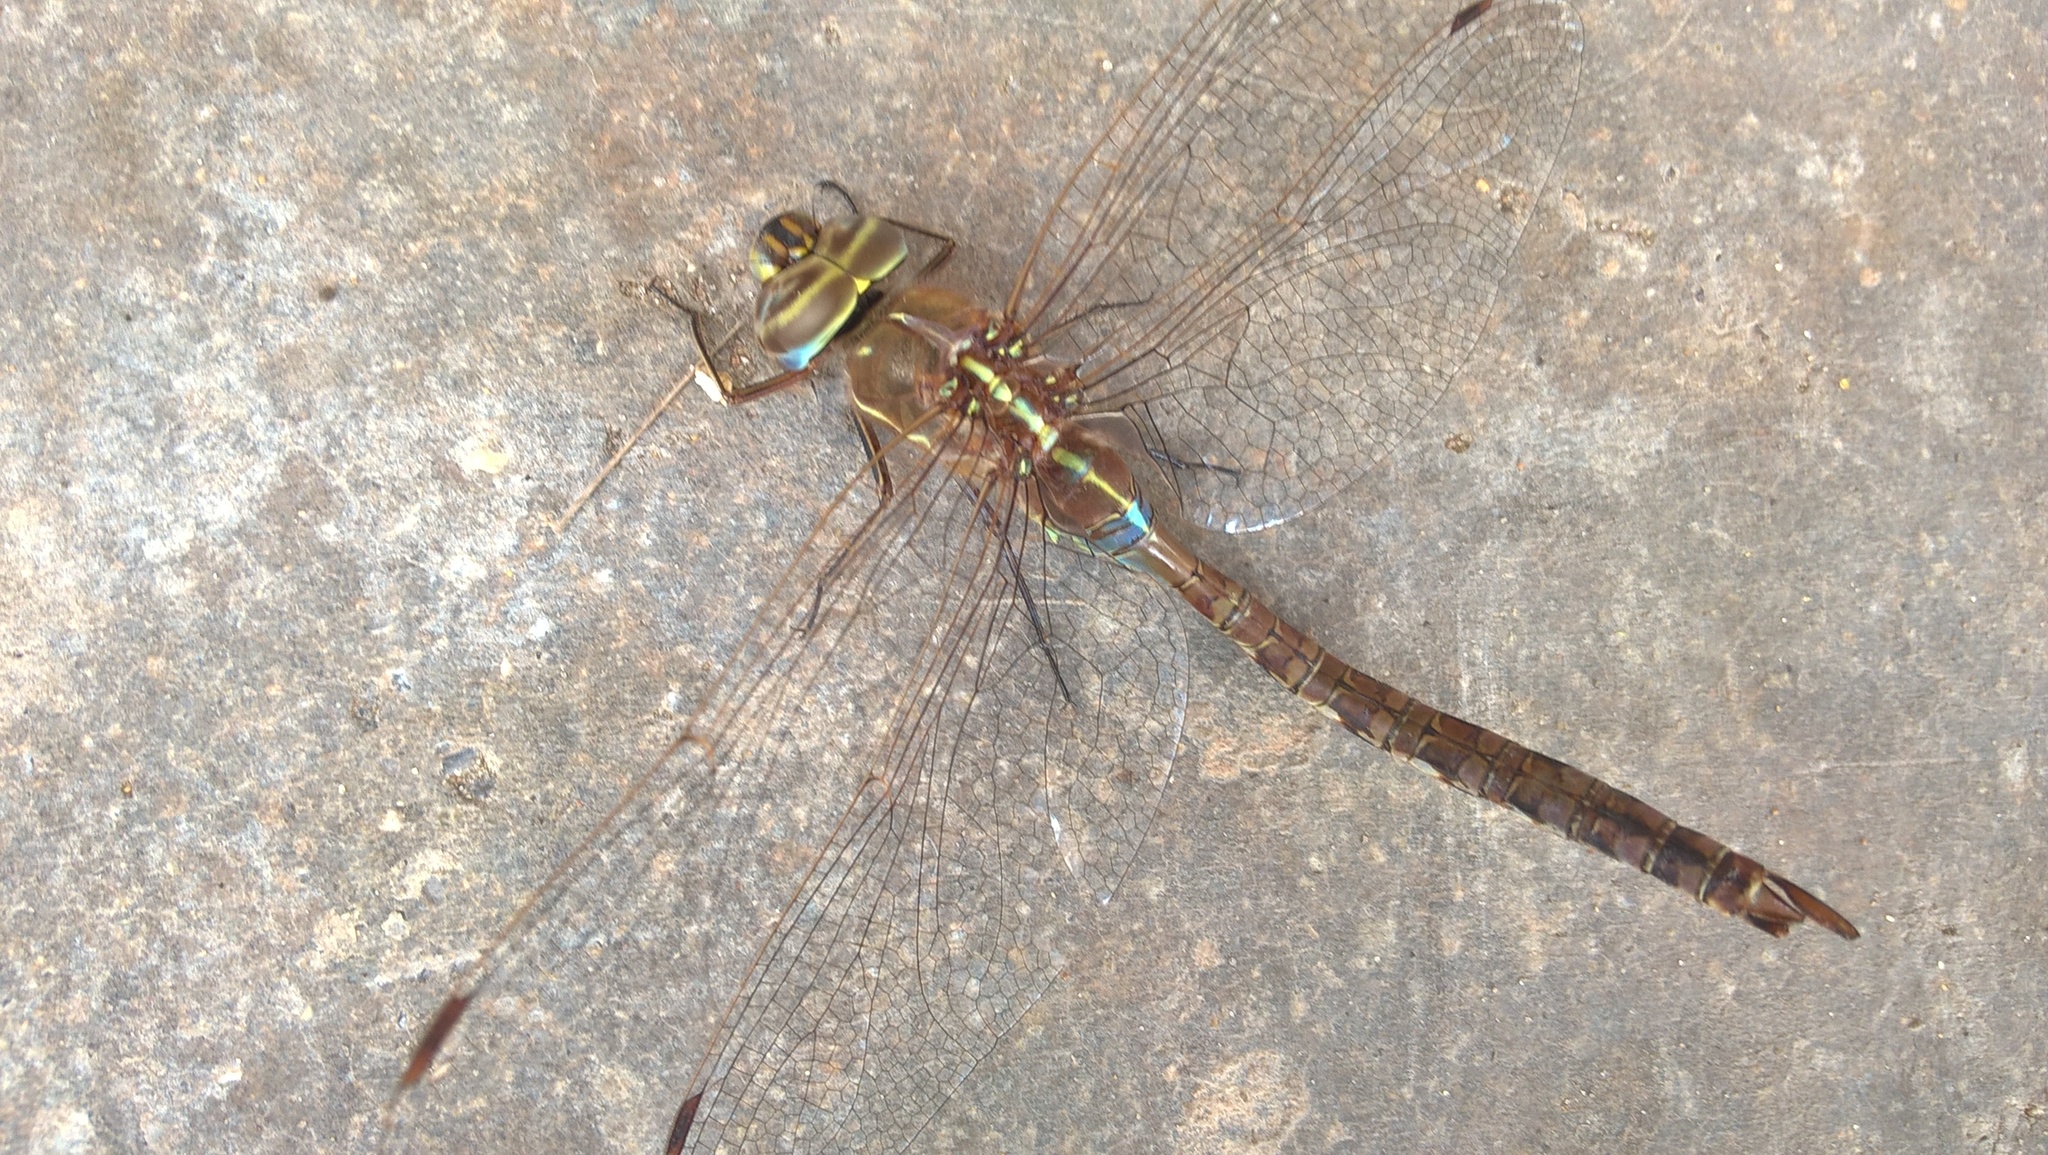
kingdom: Animalia
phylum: Arthropoda
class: Insecta
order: Odonata
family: Aeshnidae
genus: Rhionaeschna
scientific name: Rhionaeschna bonariensis
